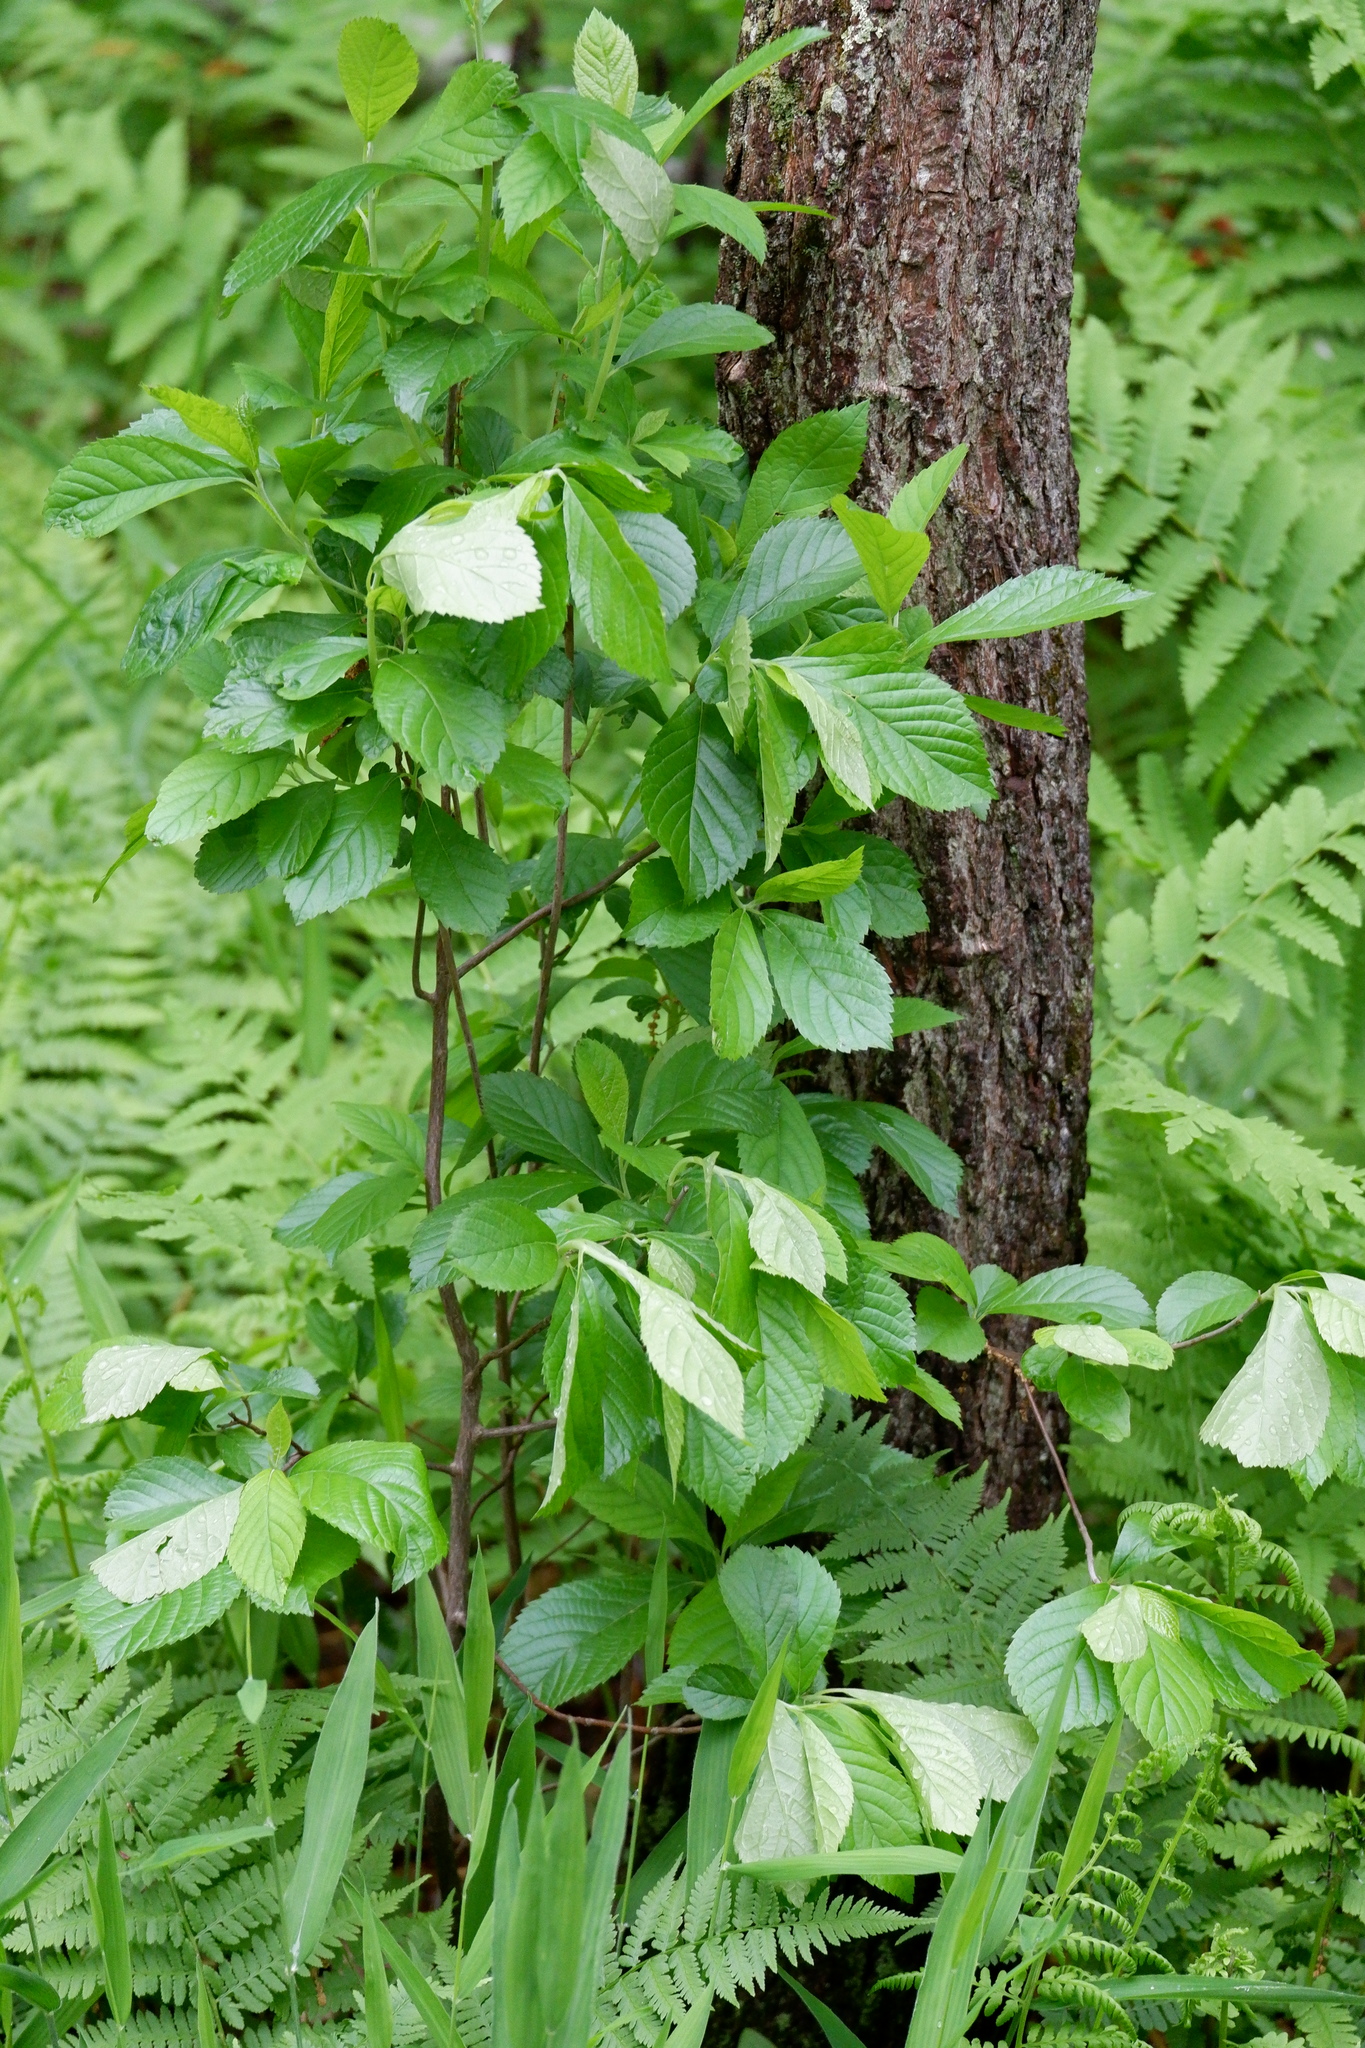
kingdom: Plantae
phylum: Tracheophyta
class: Magnoliopsida
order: Ericales
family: Clethraceae
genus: Clethra
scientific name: Clethra alnifolia
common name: Sweet pepperbush
